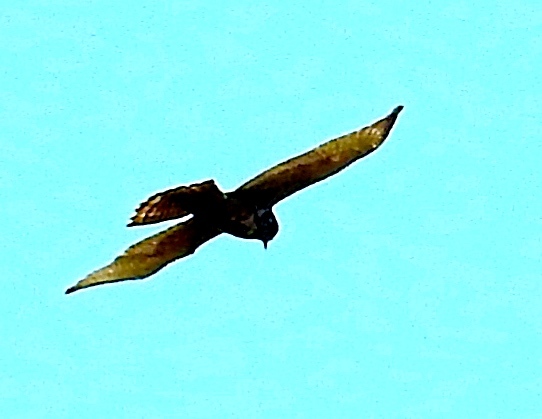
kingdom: Animalia
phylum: Chordata
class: Aves
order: Accipitriformes
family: Accipitridae
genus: Buteo
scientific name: Buteo
